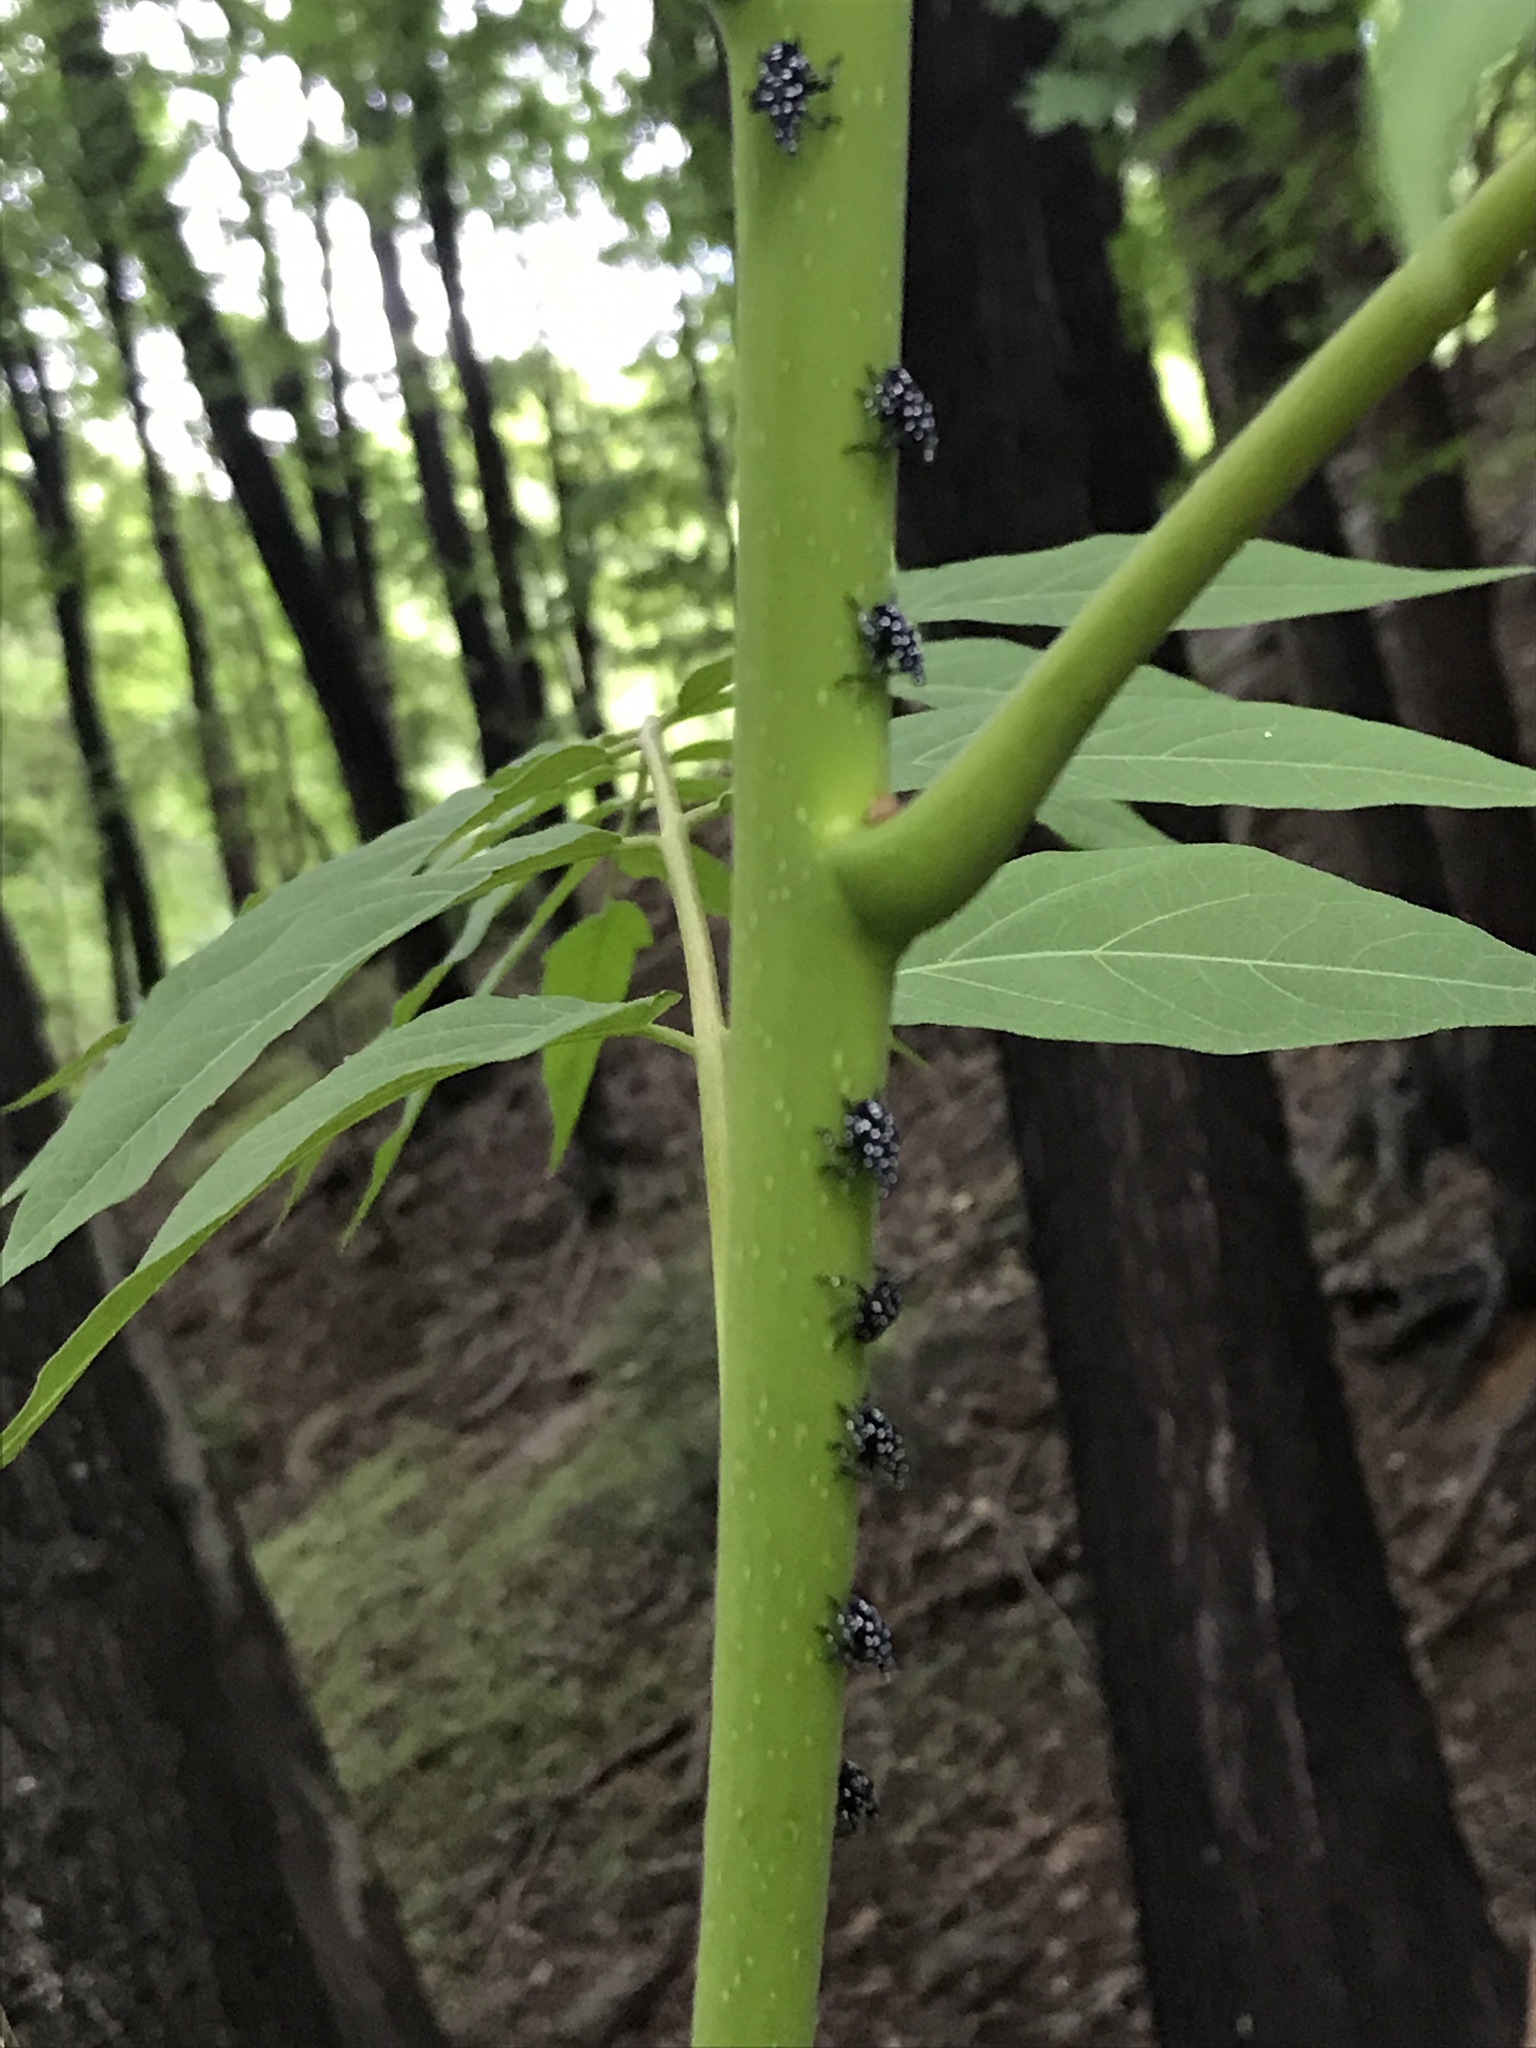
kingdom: Animalia
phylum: Arthropoda
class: Insecta
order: Hemiptera
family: Fulgoridae
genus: Lycorma
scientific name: Lycorma delicatula
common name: Spotted lanternfly
